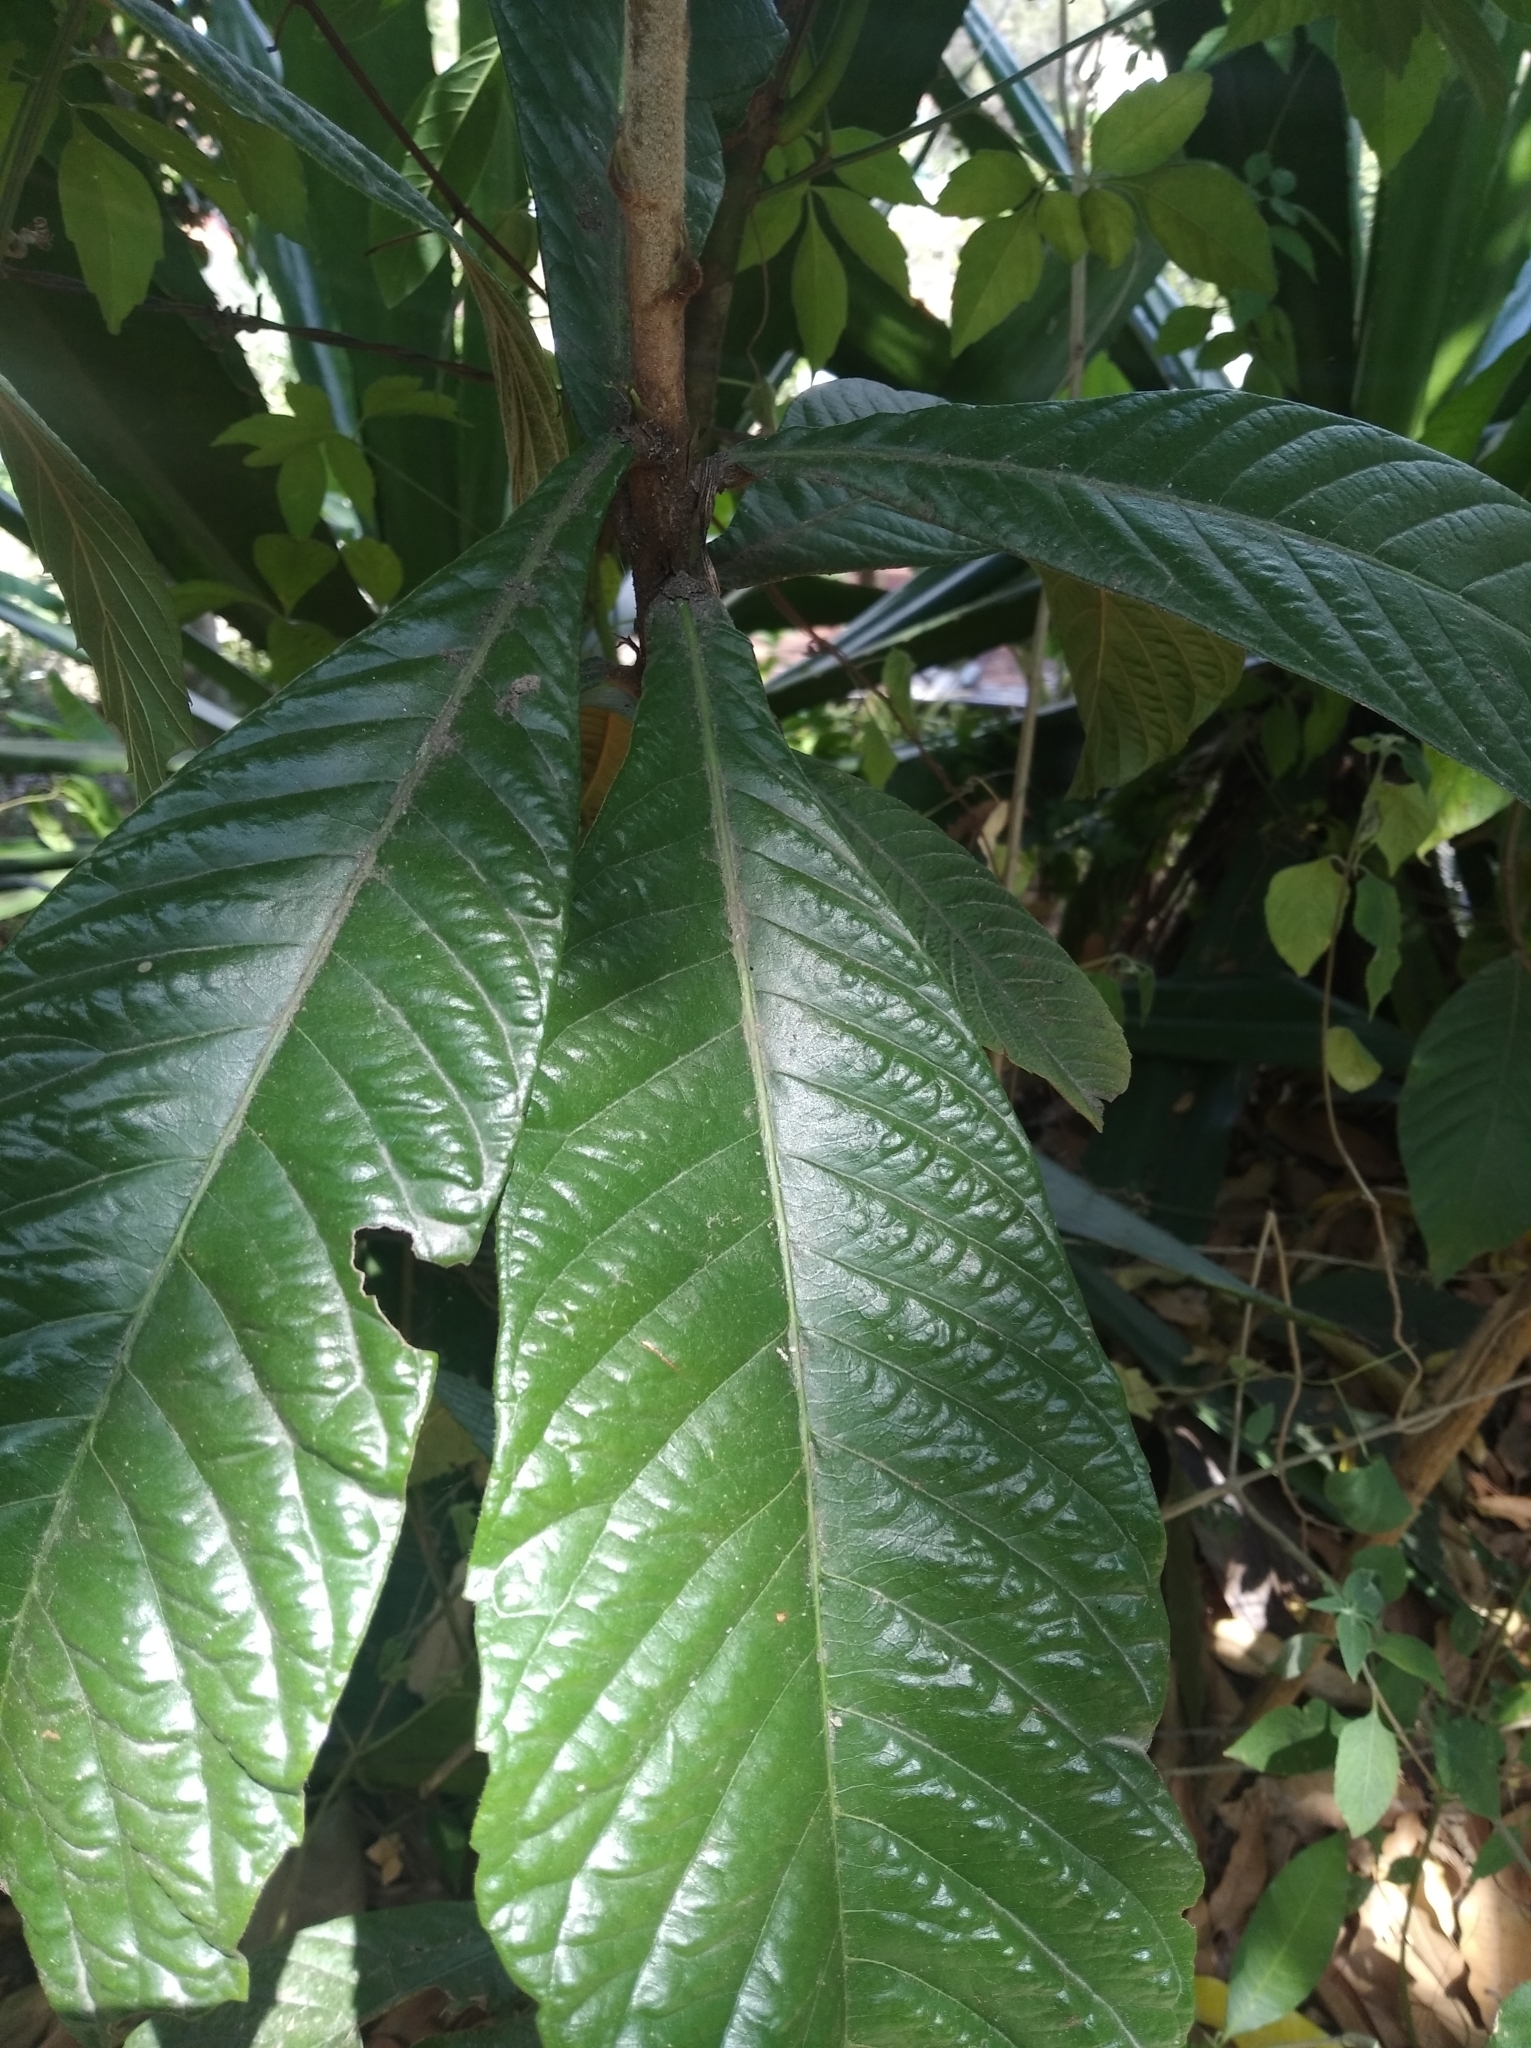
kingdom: Plantae
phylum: Tracheophyta
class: Magnoliopsida
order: Rosales
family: Rosaceae
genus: Rhaphiolepis
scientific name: Rhaphiolepis bibas
